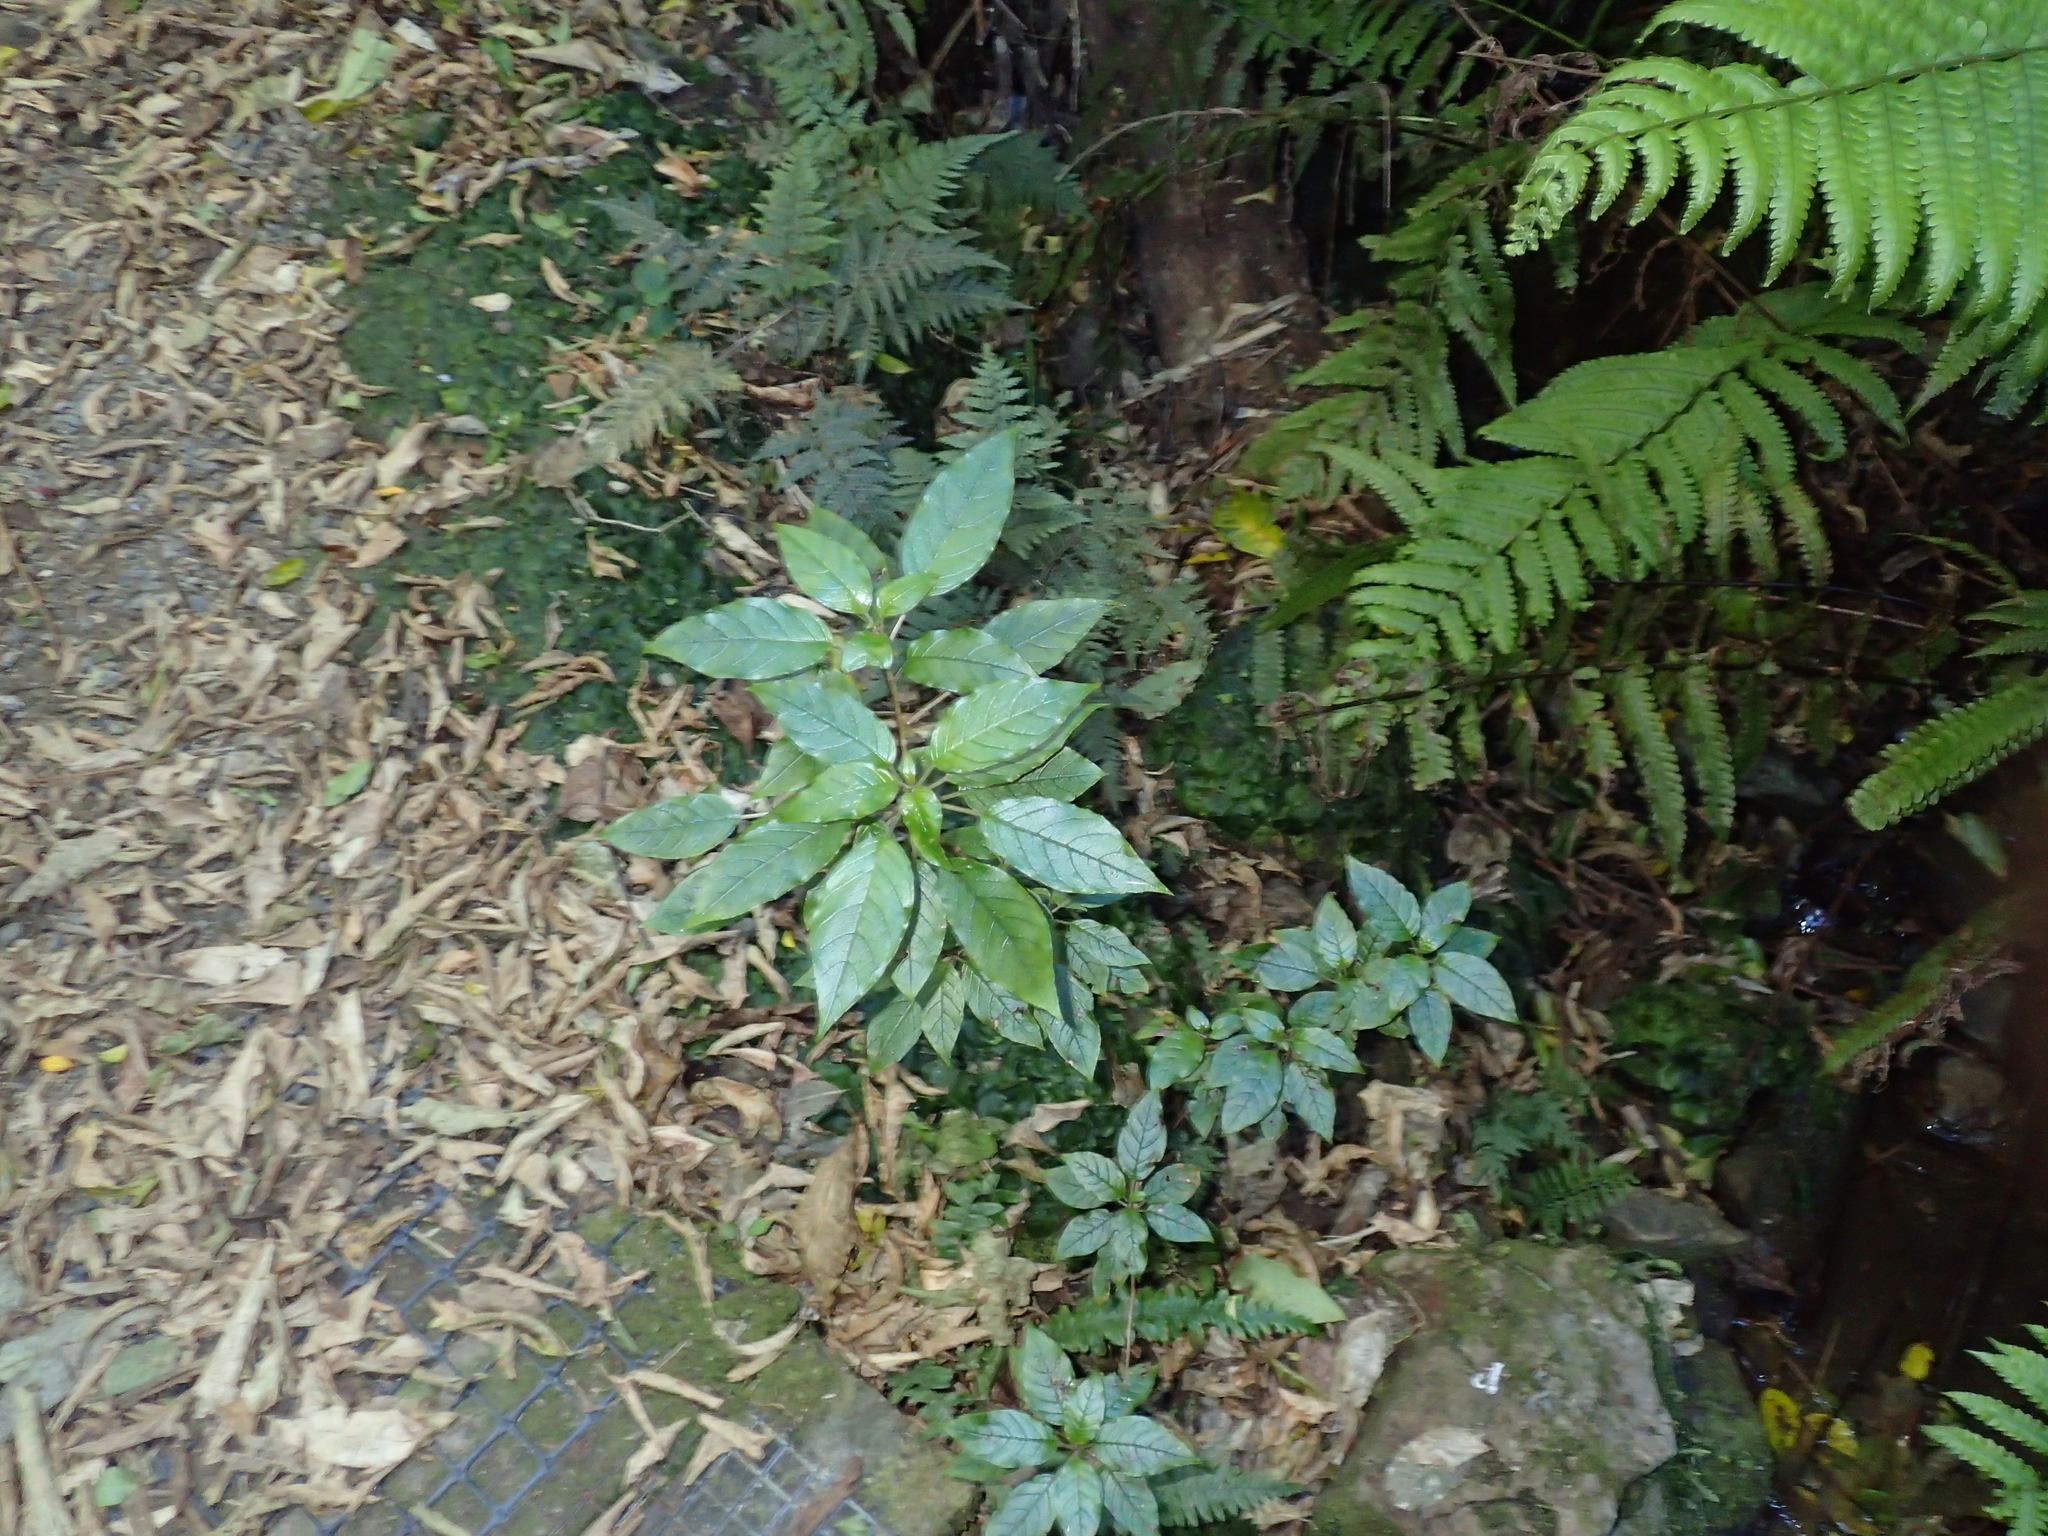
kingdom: Plantae
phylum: Tracheophyta
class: Magnoliopsida
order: Myrtales
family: Onagraceae
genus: Fuchsia
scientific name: Fuchsia excorticata
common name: Tree fuchsia
